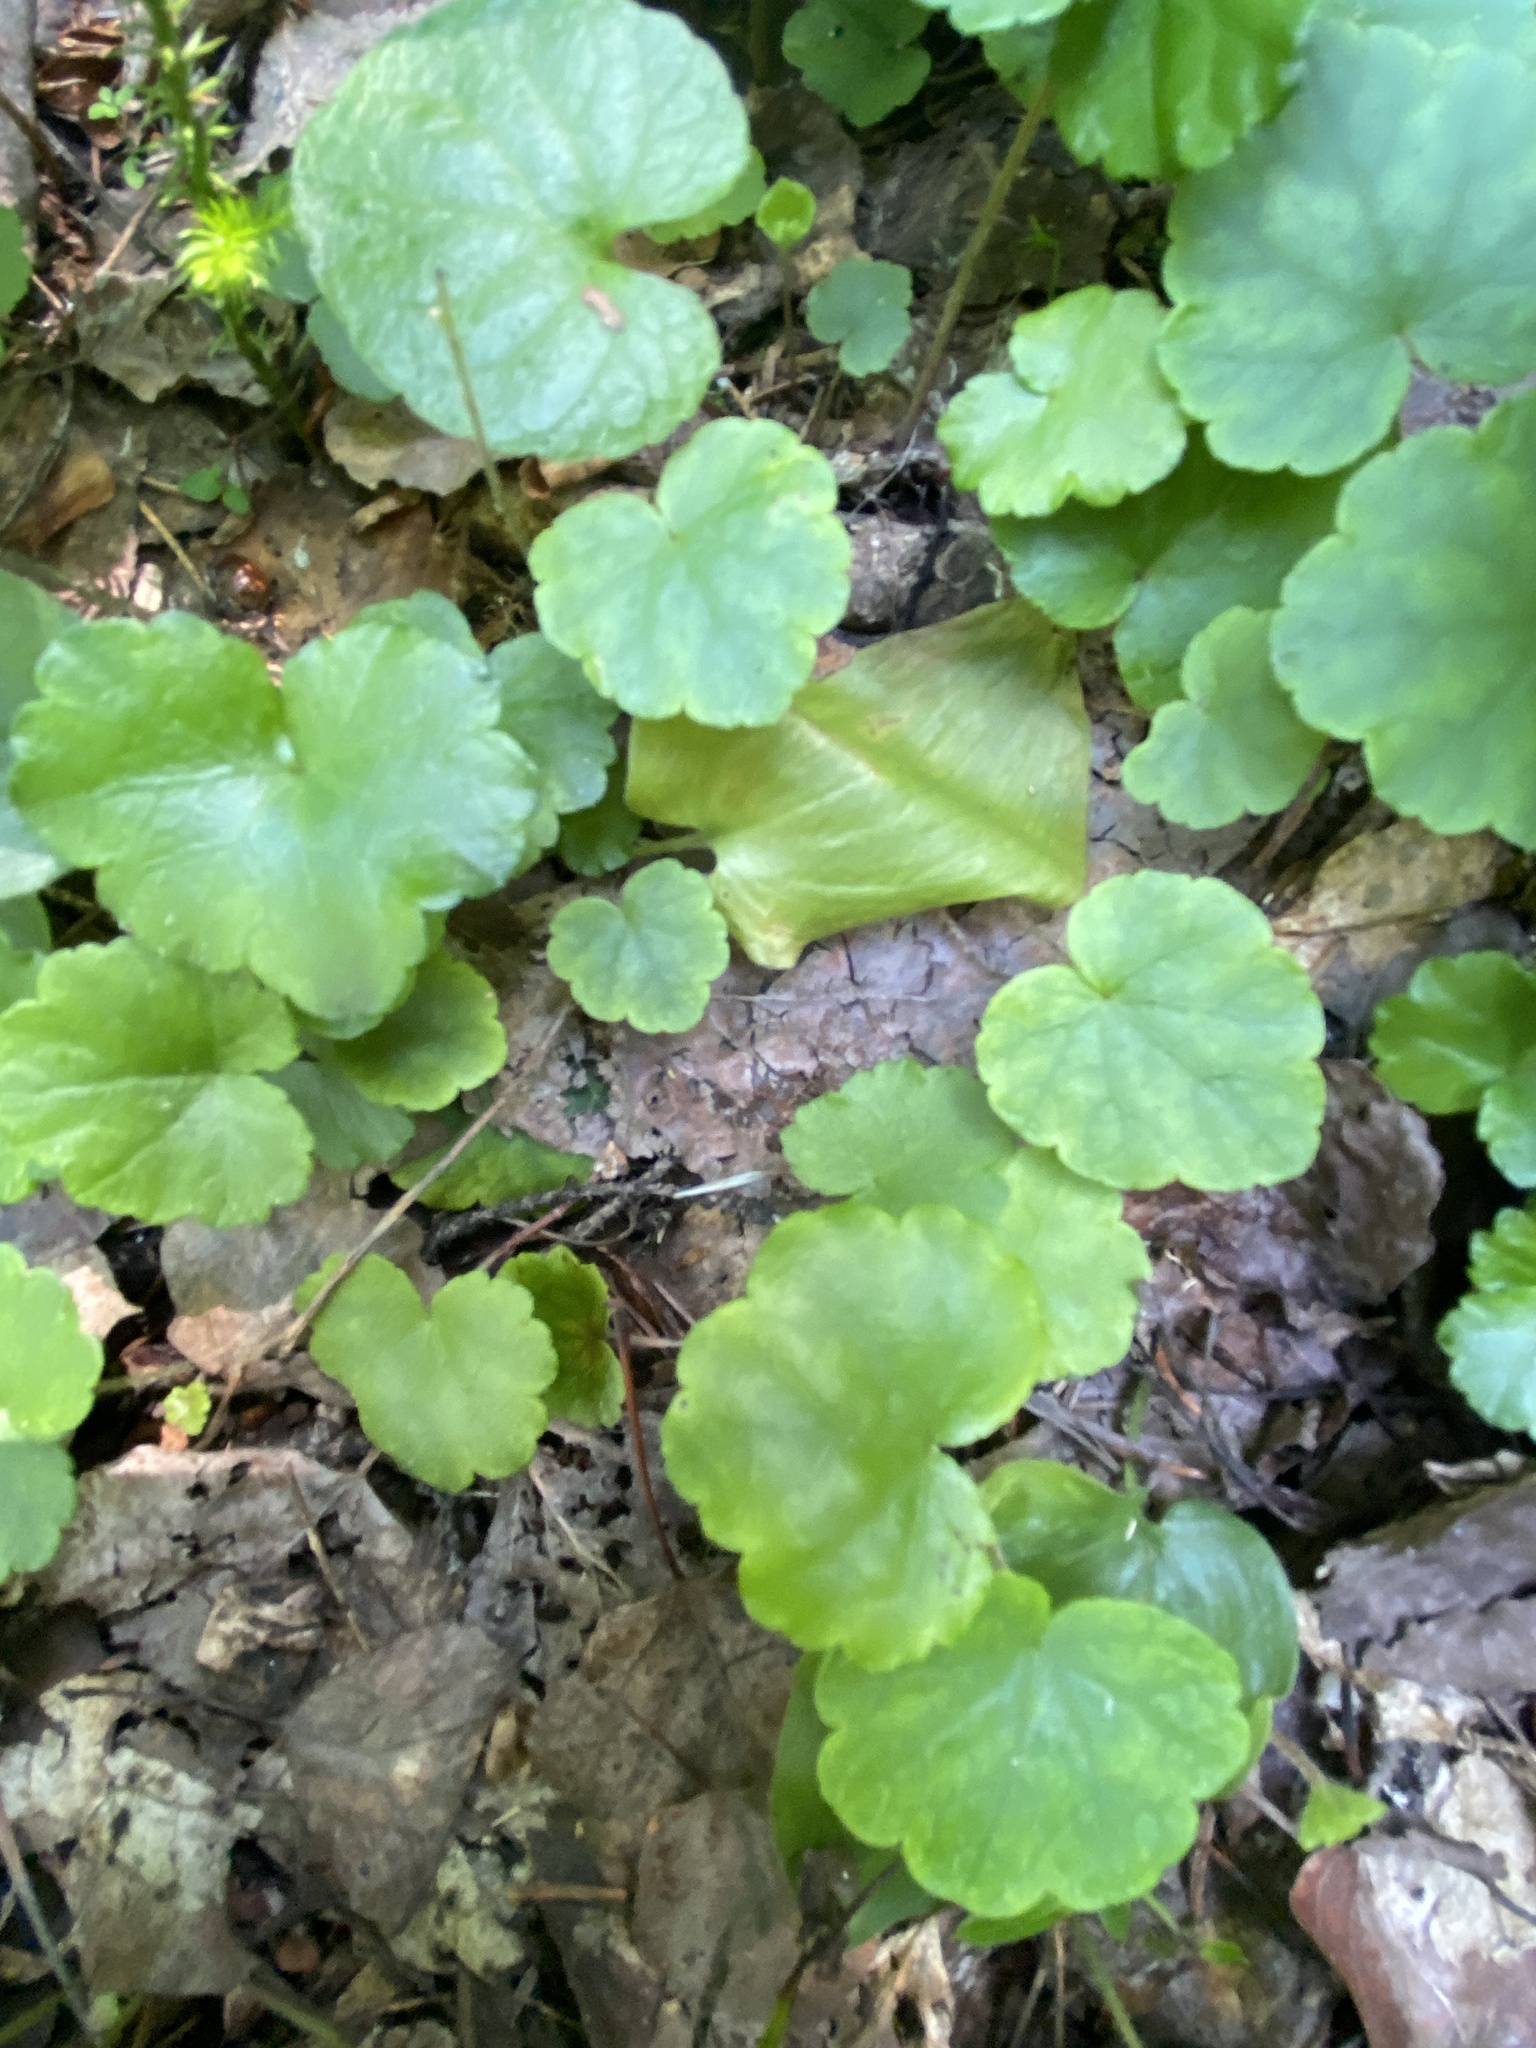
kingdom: Plantae
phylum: Tracheophyta
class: Magnoliopsida
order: Saxifragales
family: Saxifragaceae
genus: Mitella
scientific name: Mitella nuda
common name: Bare-stemmed bishop's-cap
